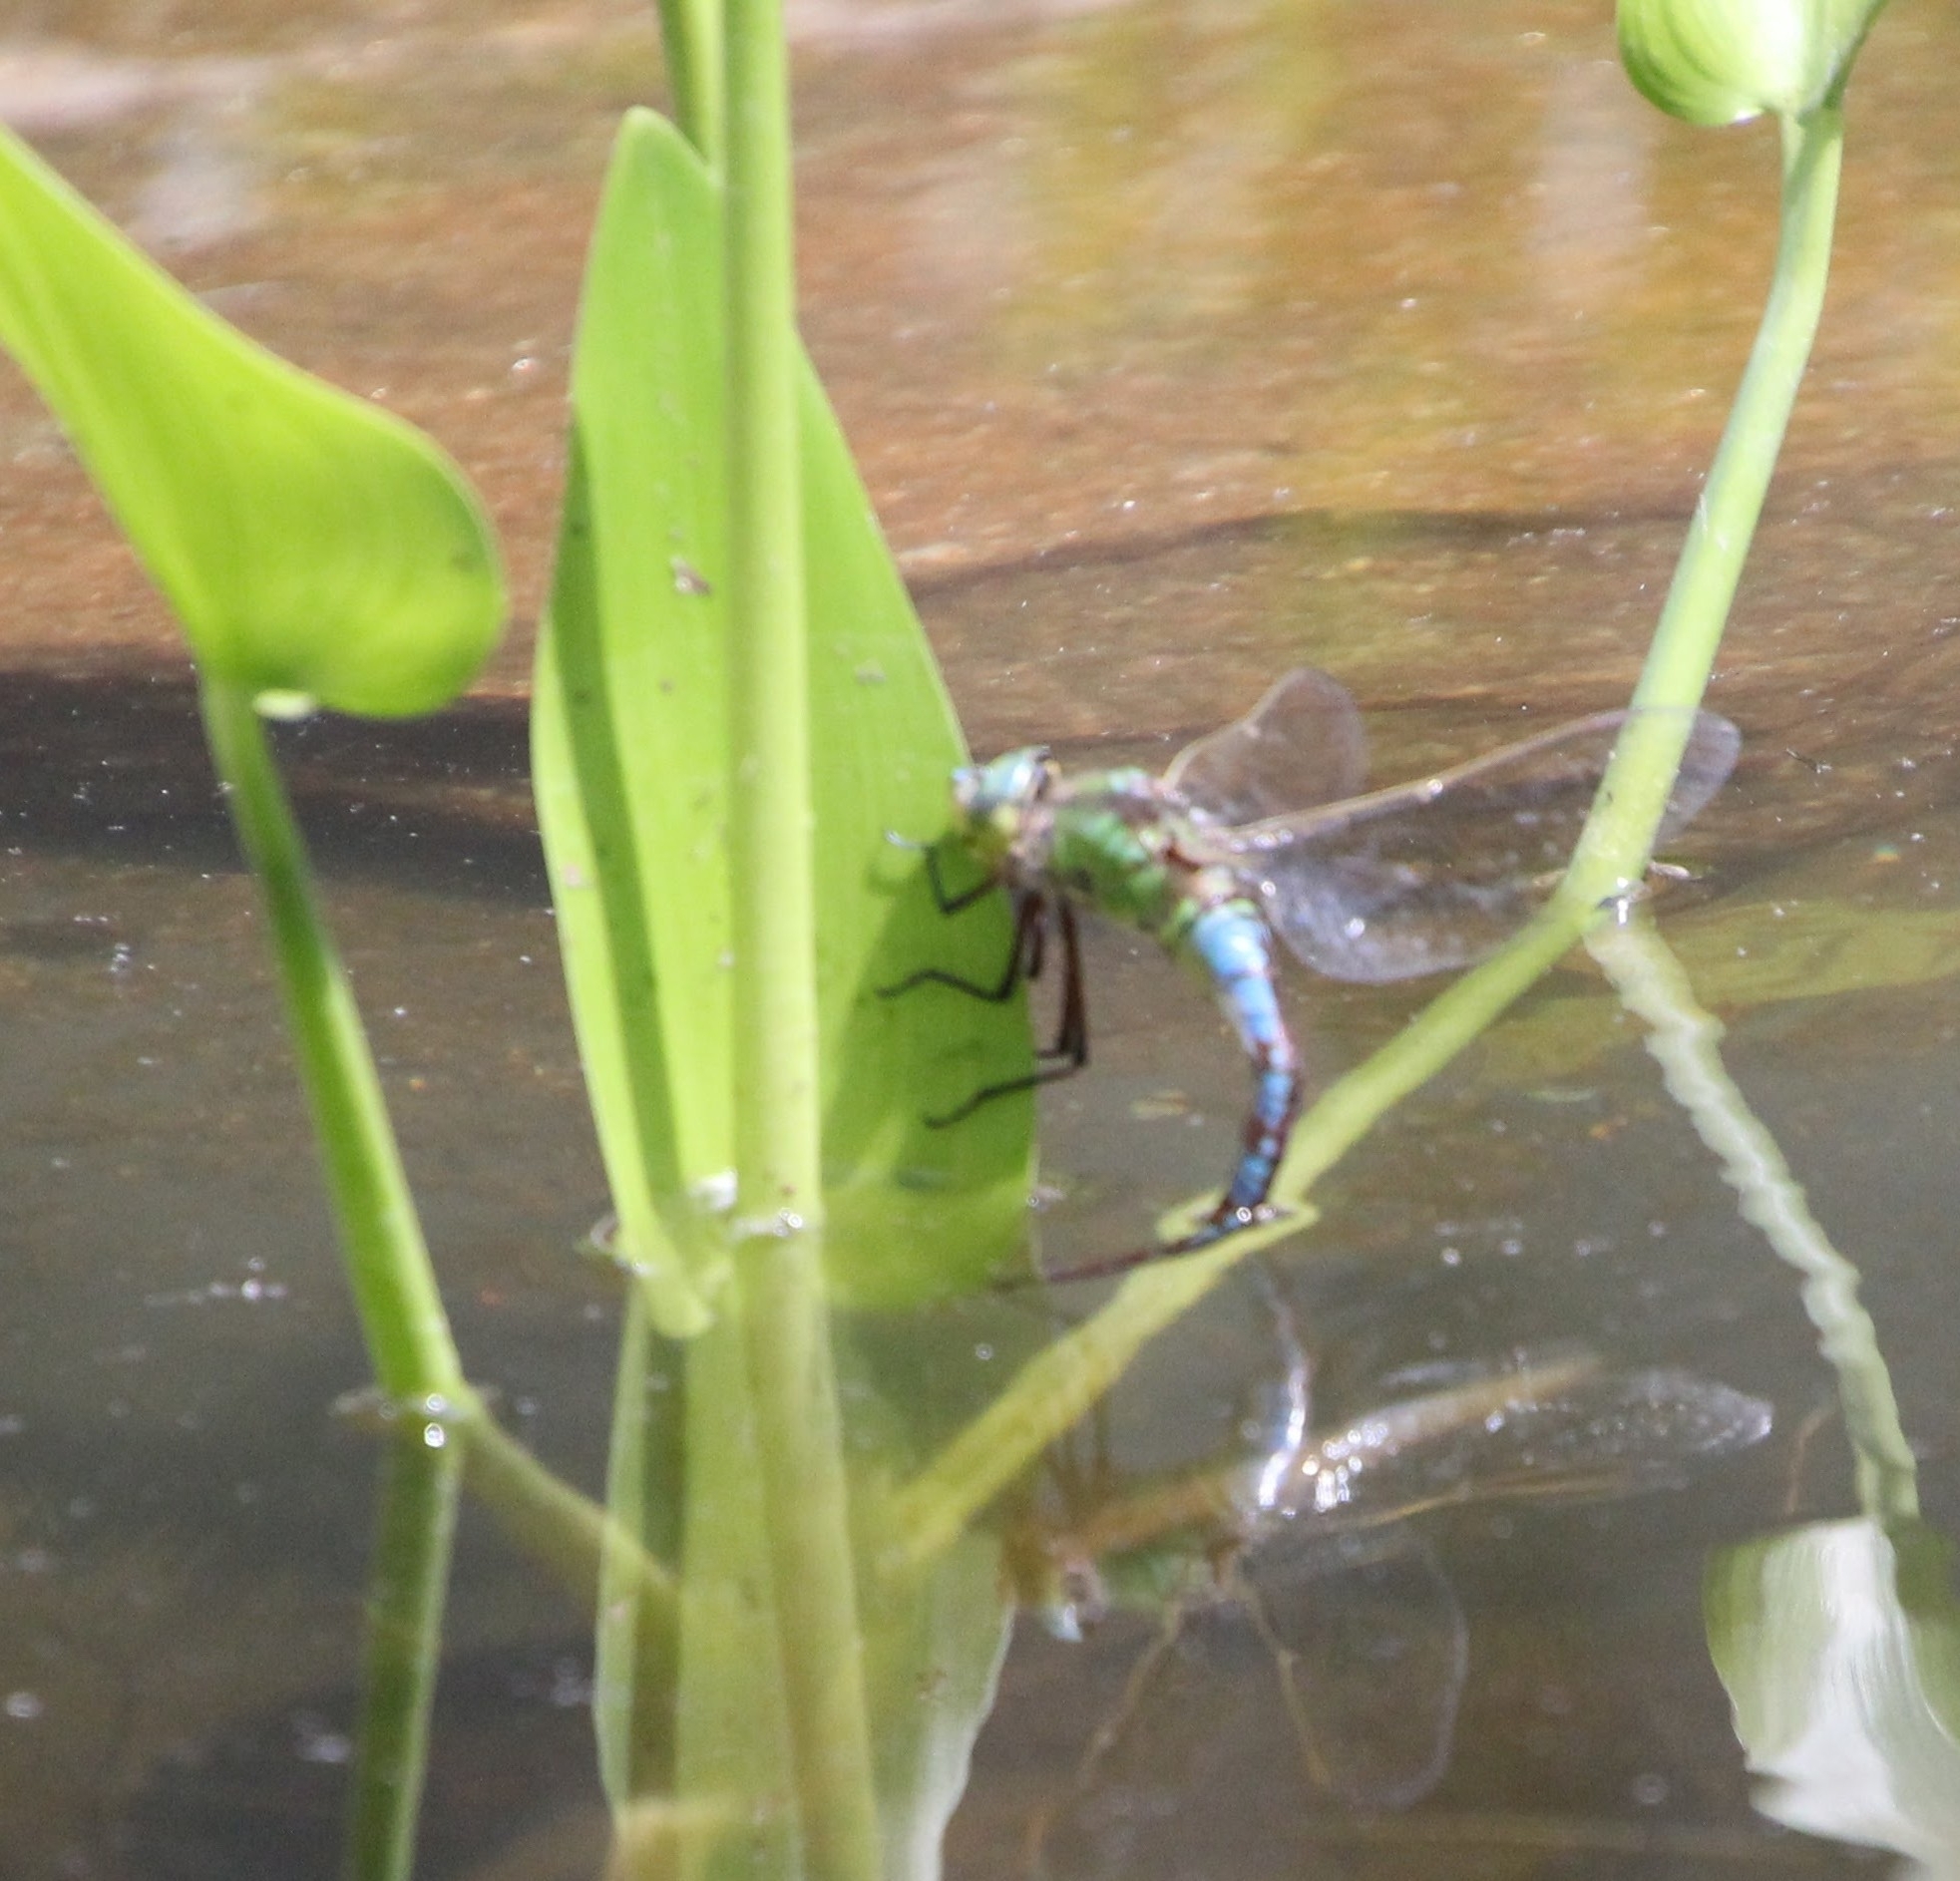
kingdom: Animalia
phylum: Arthropoda
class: Insecta
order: Odonata
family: Aeshnidae
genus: Anax
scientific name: Anax imperator
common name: Emperor dragonfly
